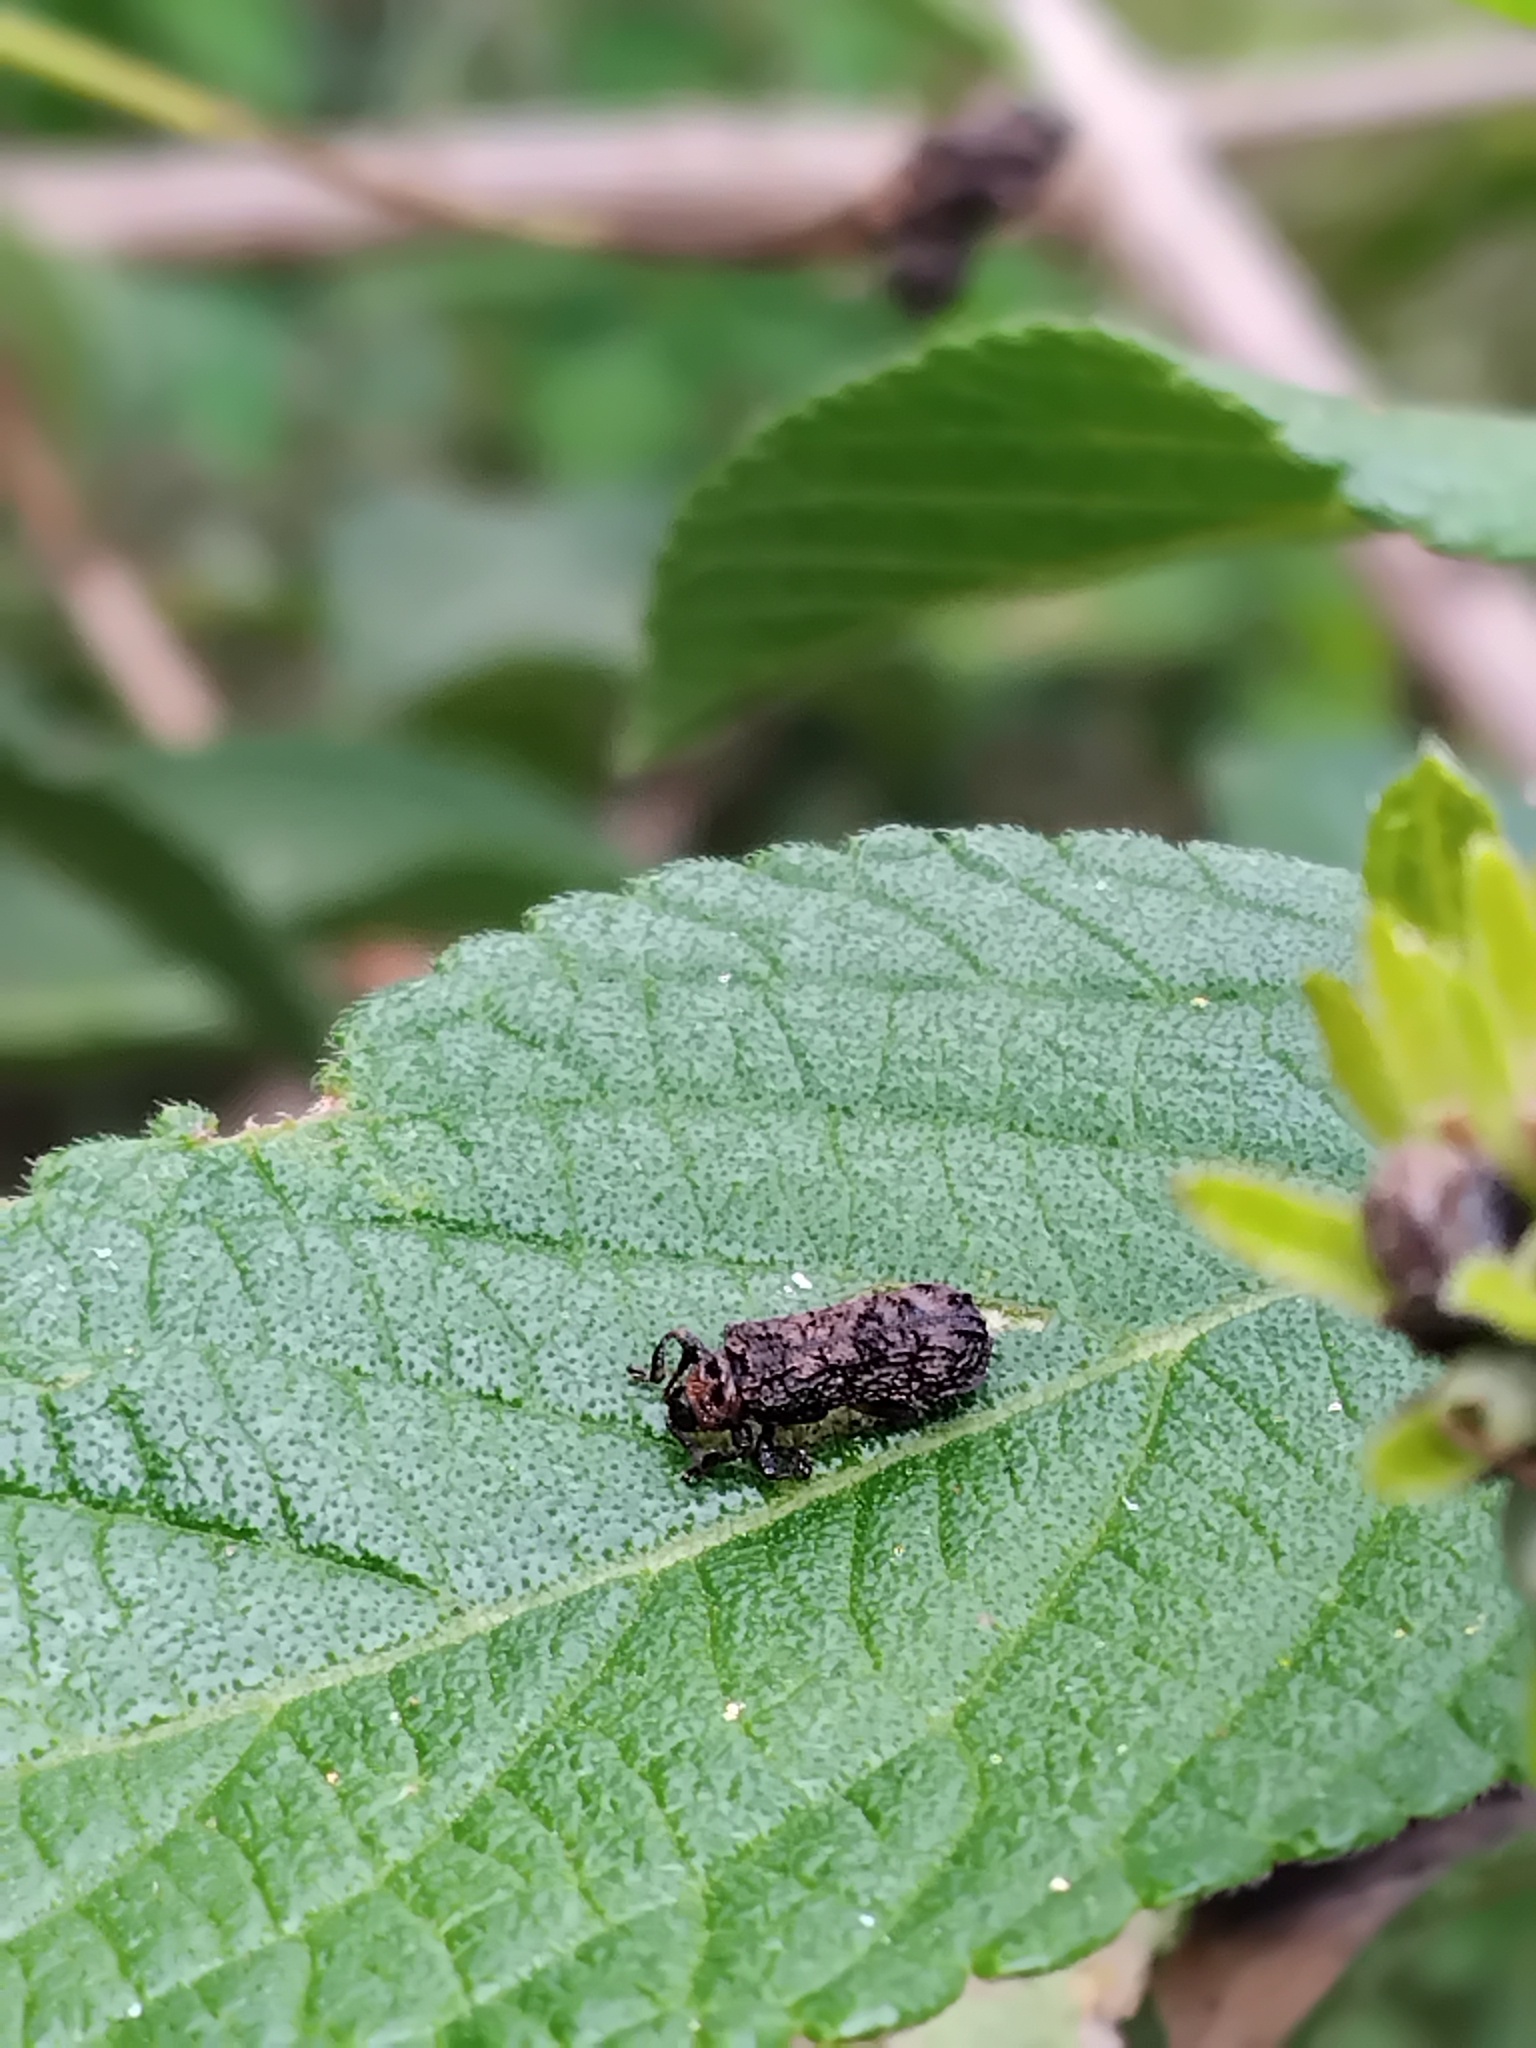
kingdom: Animalia
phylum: Arthropoda
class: Insecta
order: Coleoptera
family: Chrysomelidae
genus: Octotoma
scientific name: Octotoma scabripennis
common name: Beetle
